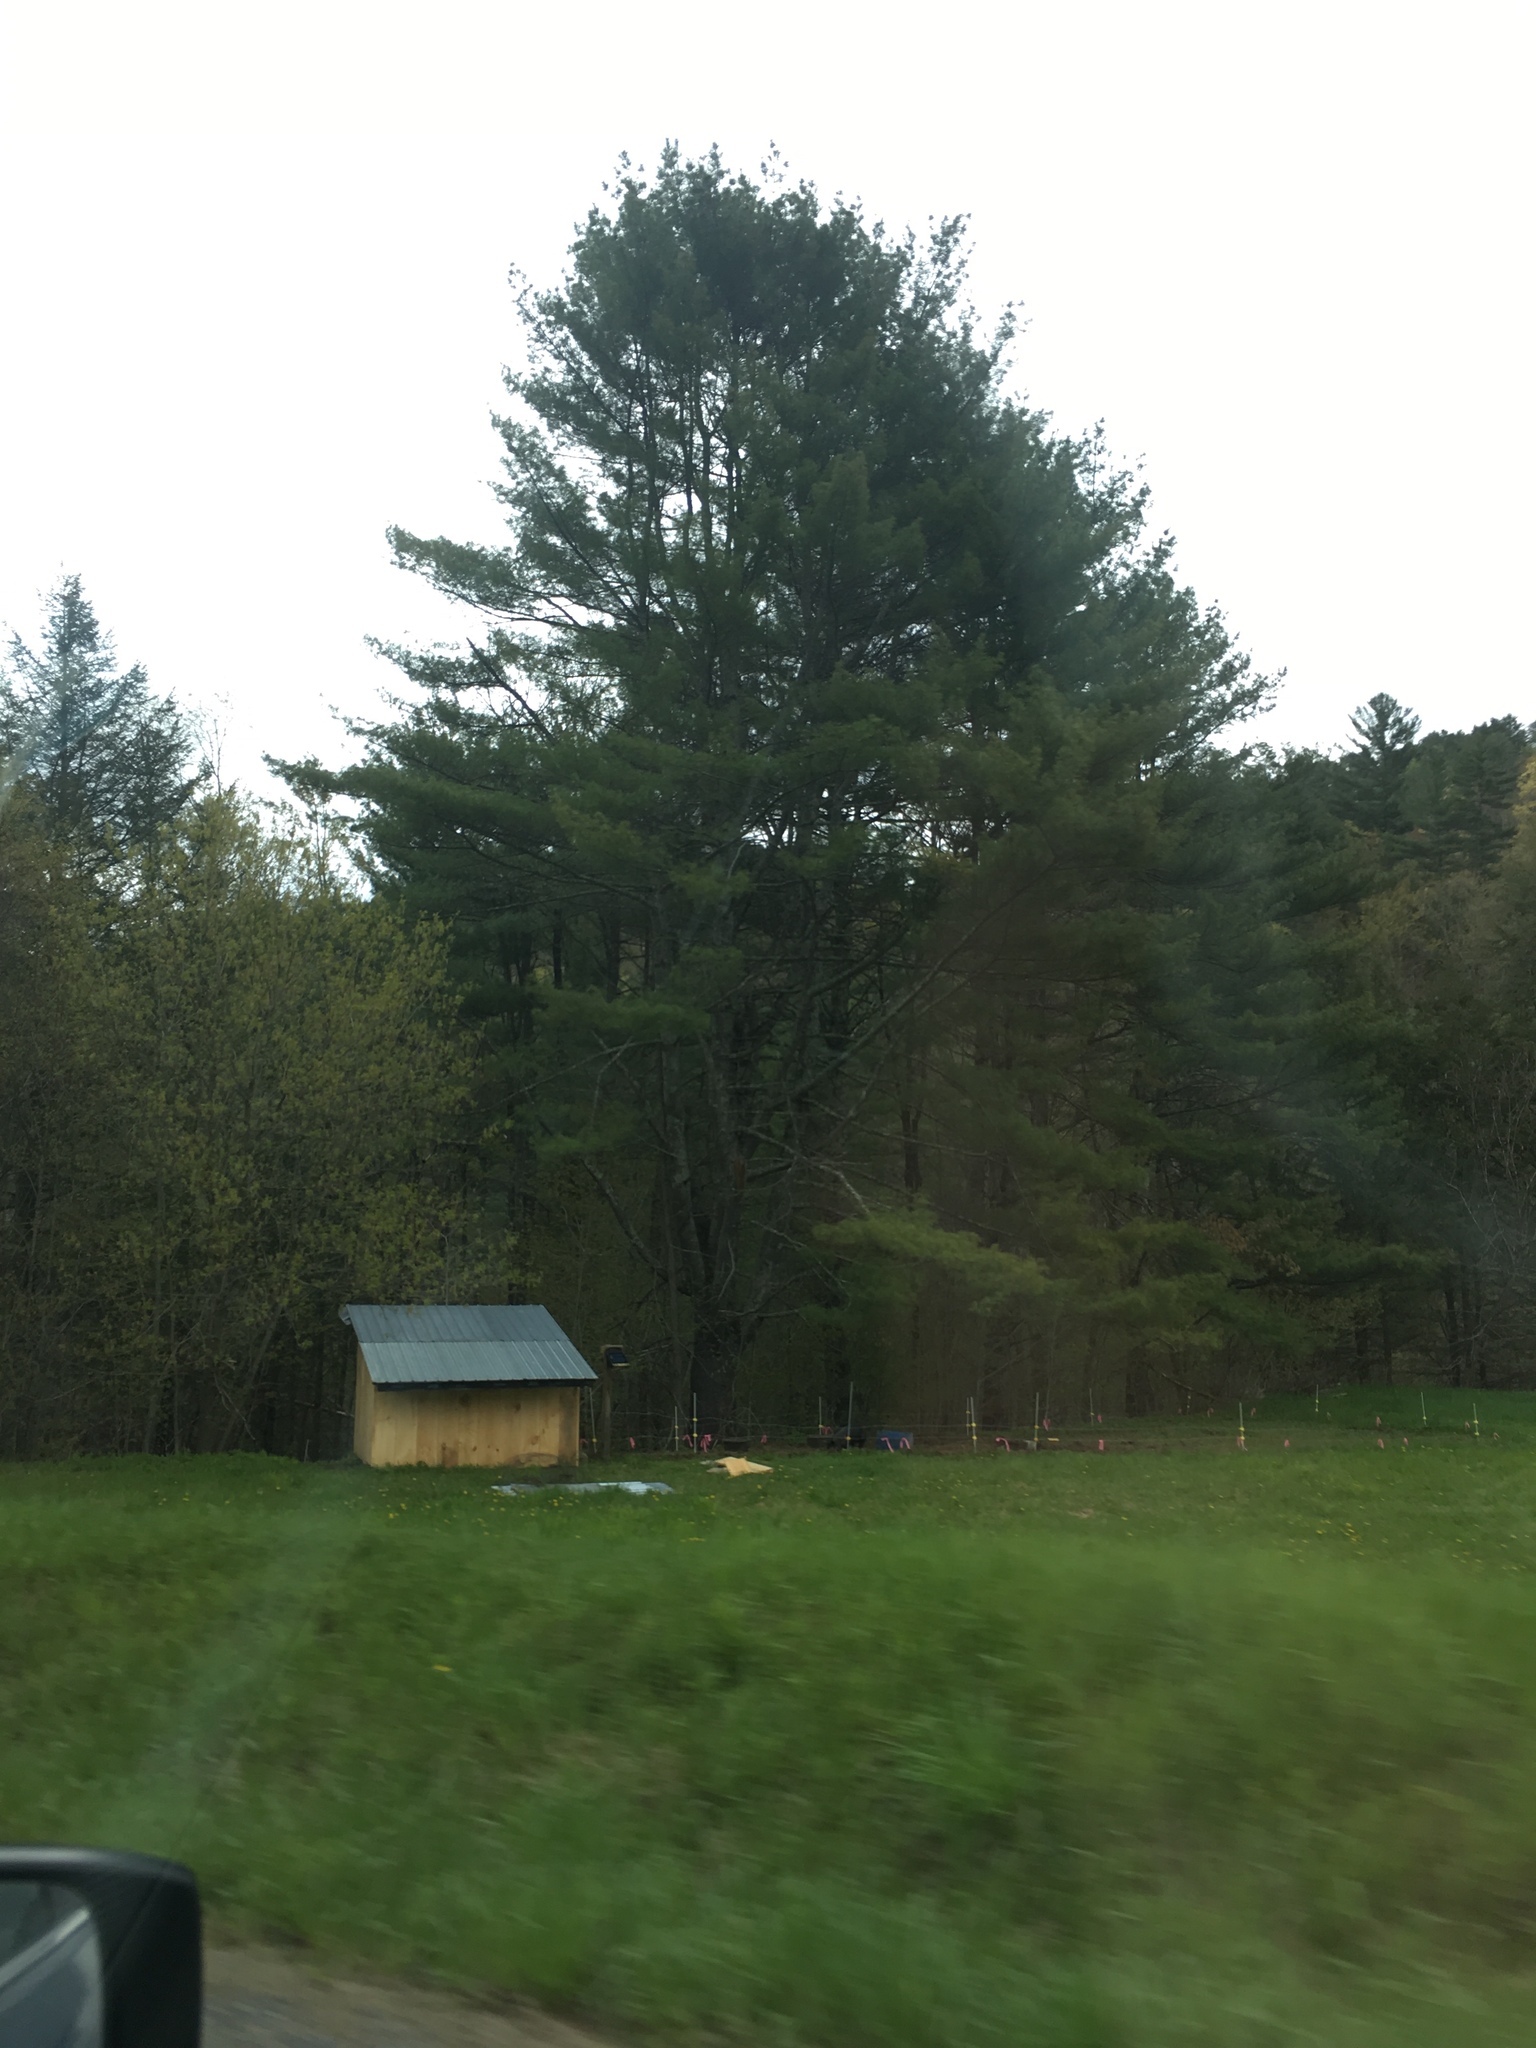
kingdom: Plantae
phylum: Tracheophyta
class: Pinopsida
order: Pinales
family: Pinaceae
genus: Pinus
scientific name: Pinus strobus
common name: Weymouth pine
